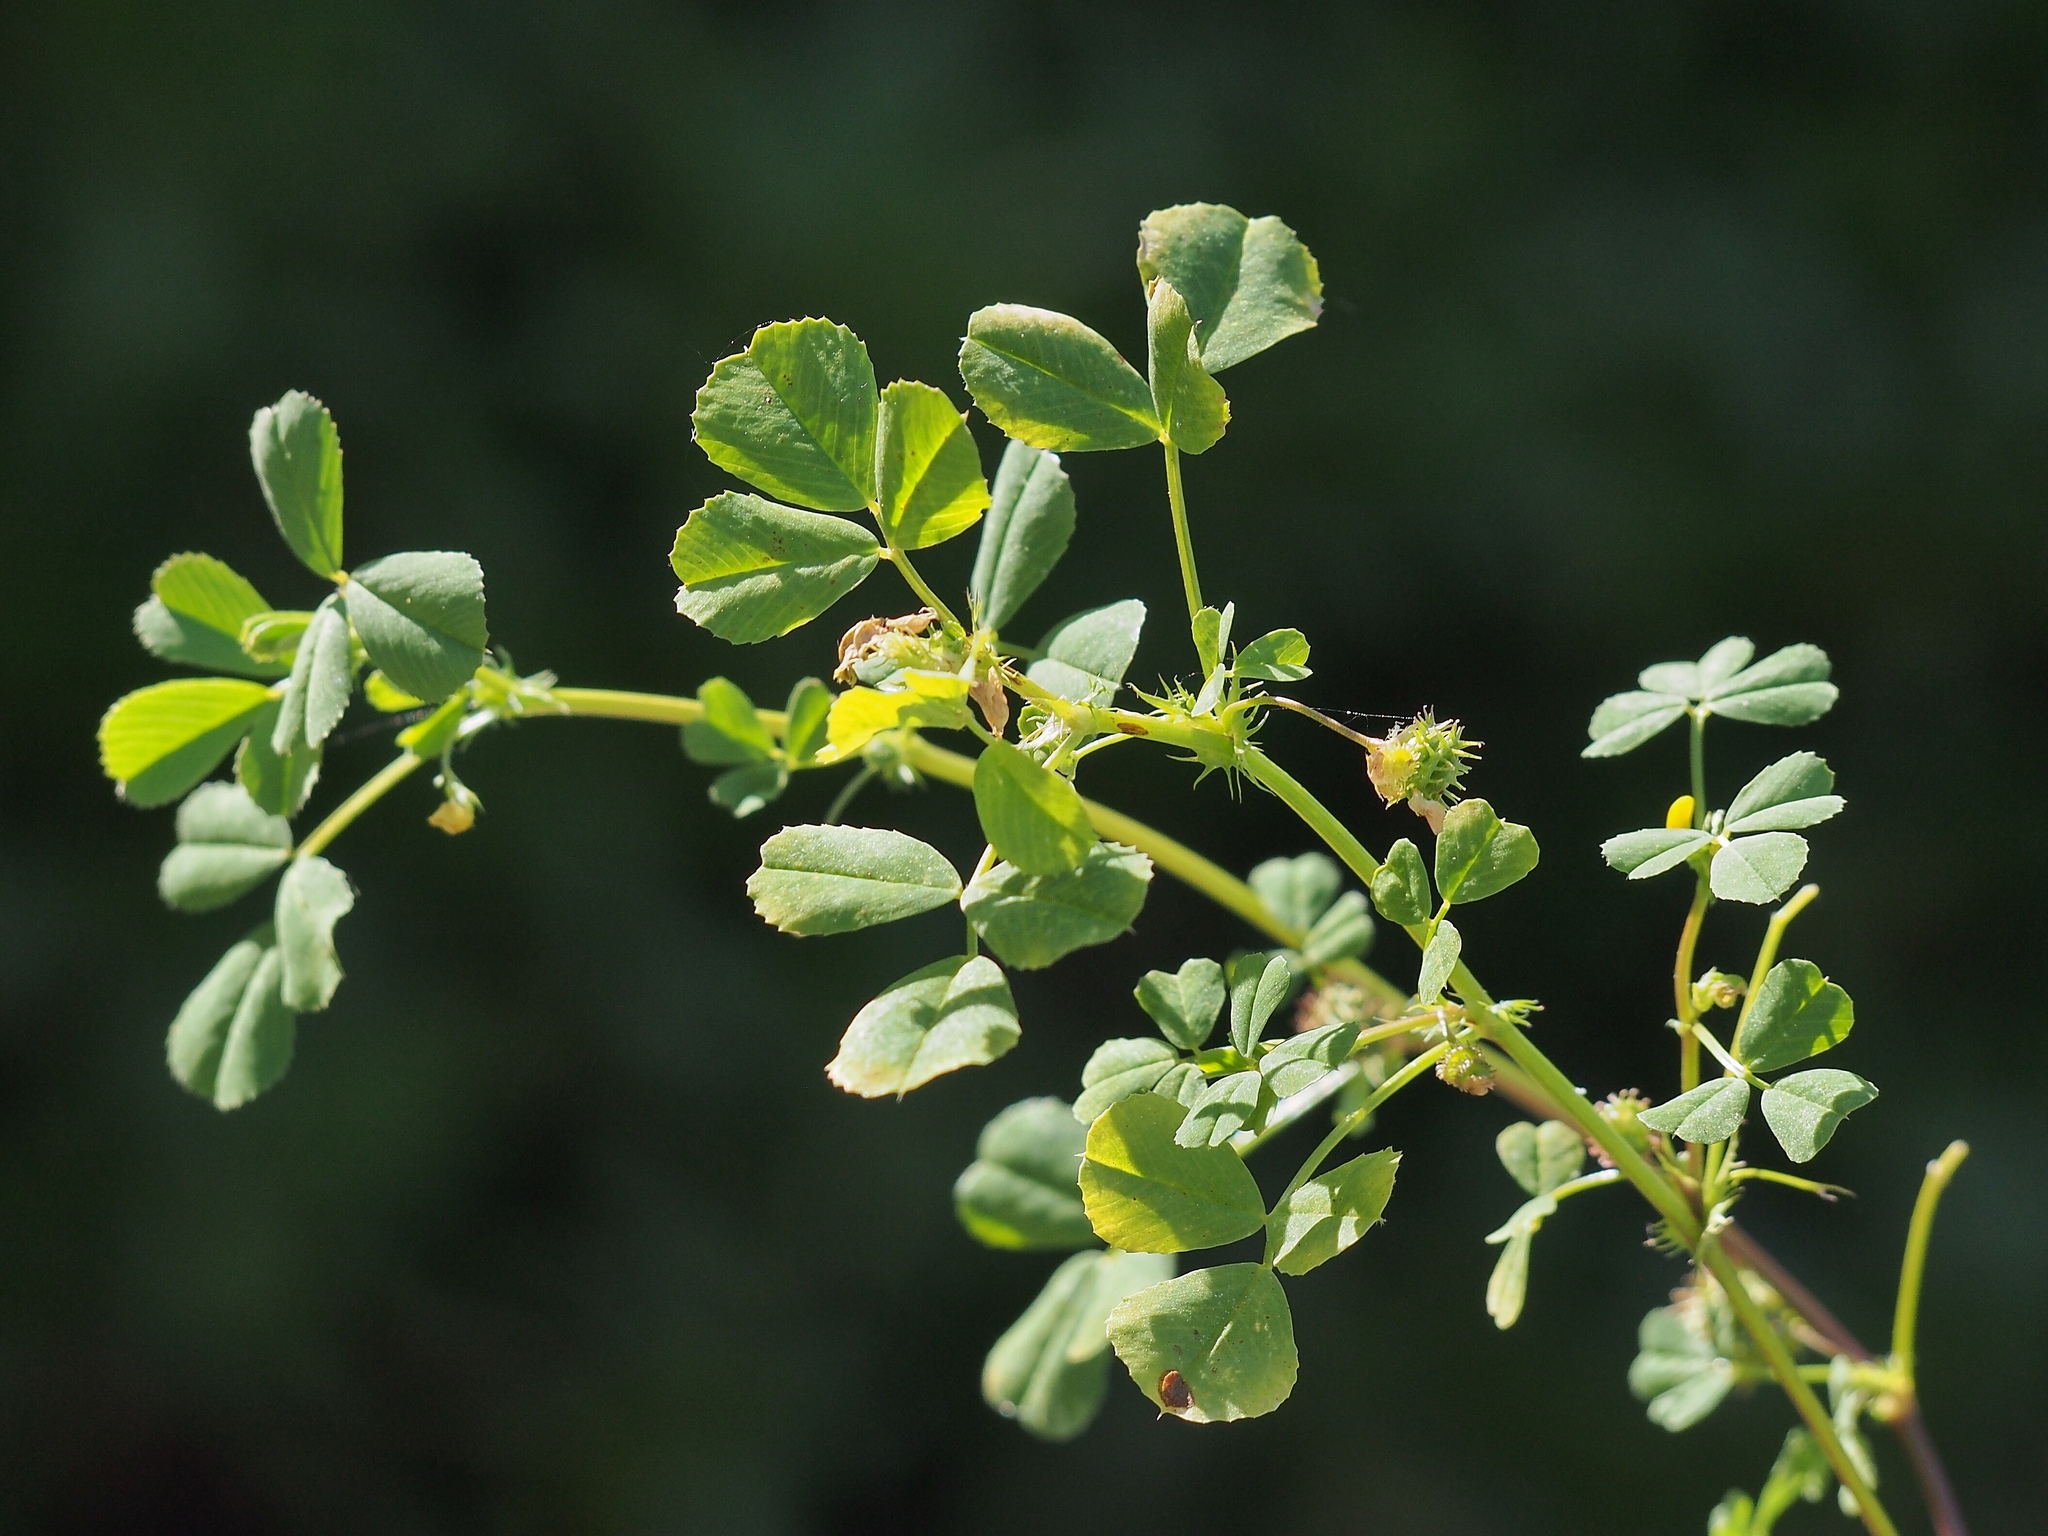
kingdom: Plantae
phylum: Tracheophyta
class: Magnoliopsida
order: Fabales
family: Fabaceae
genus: Medicago
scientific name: Medicago polymorpha
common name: Burclover
